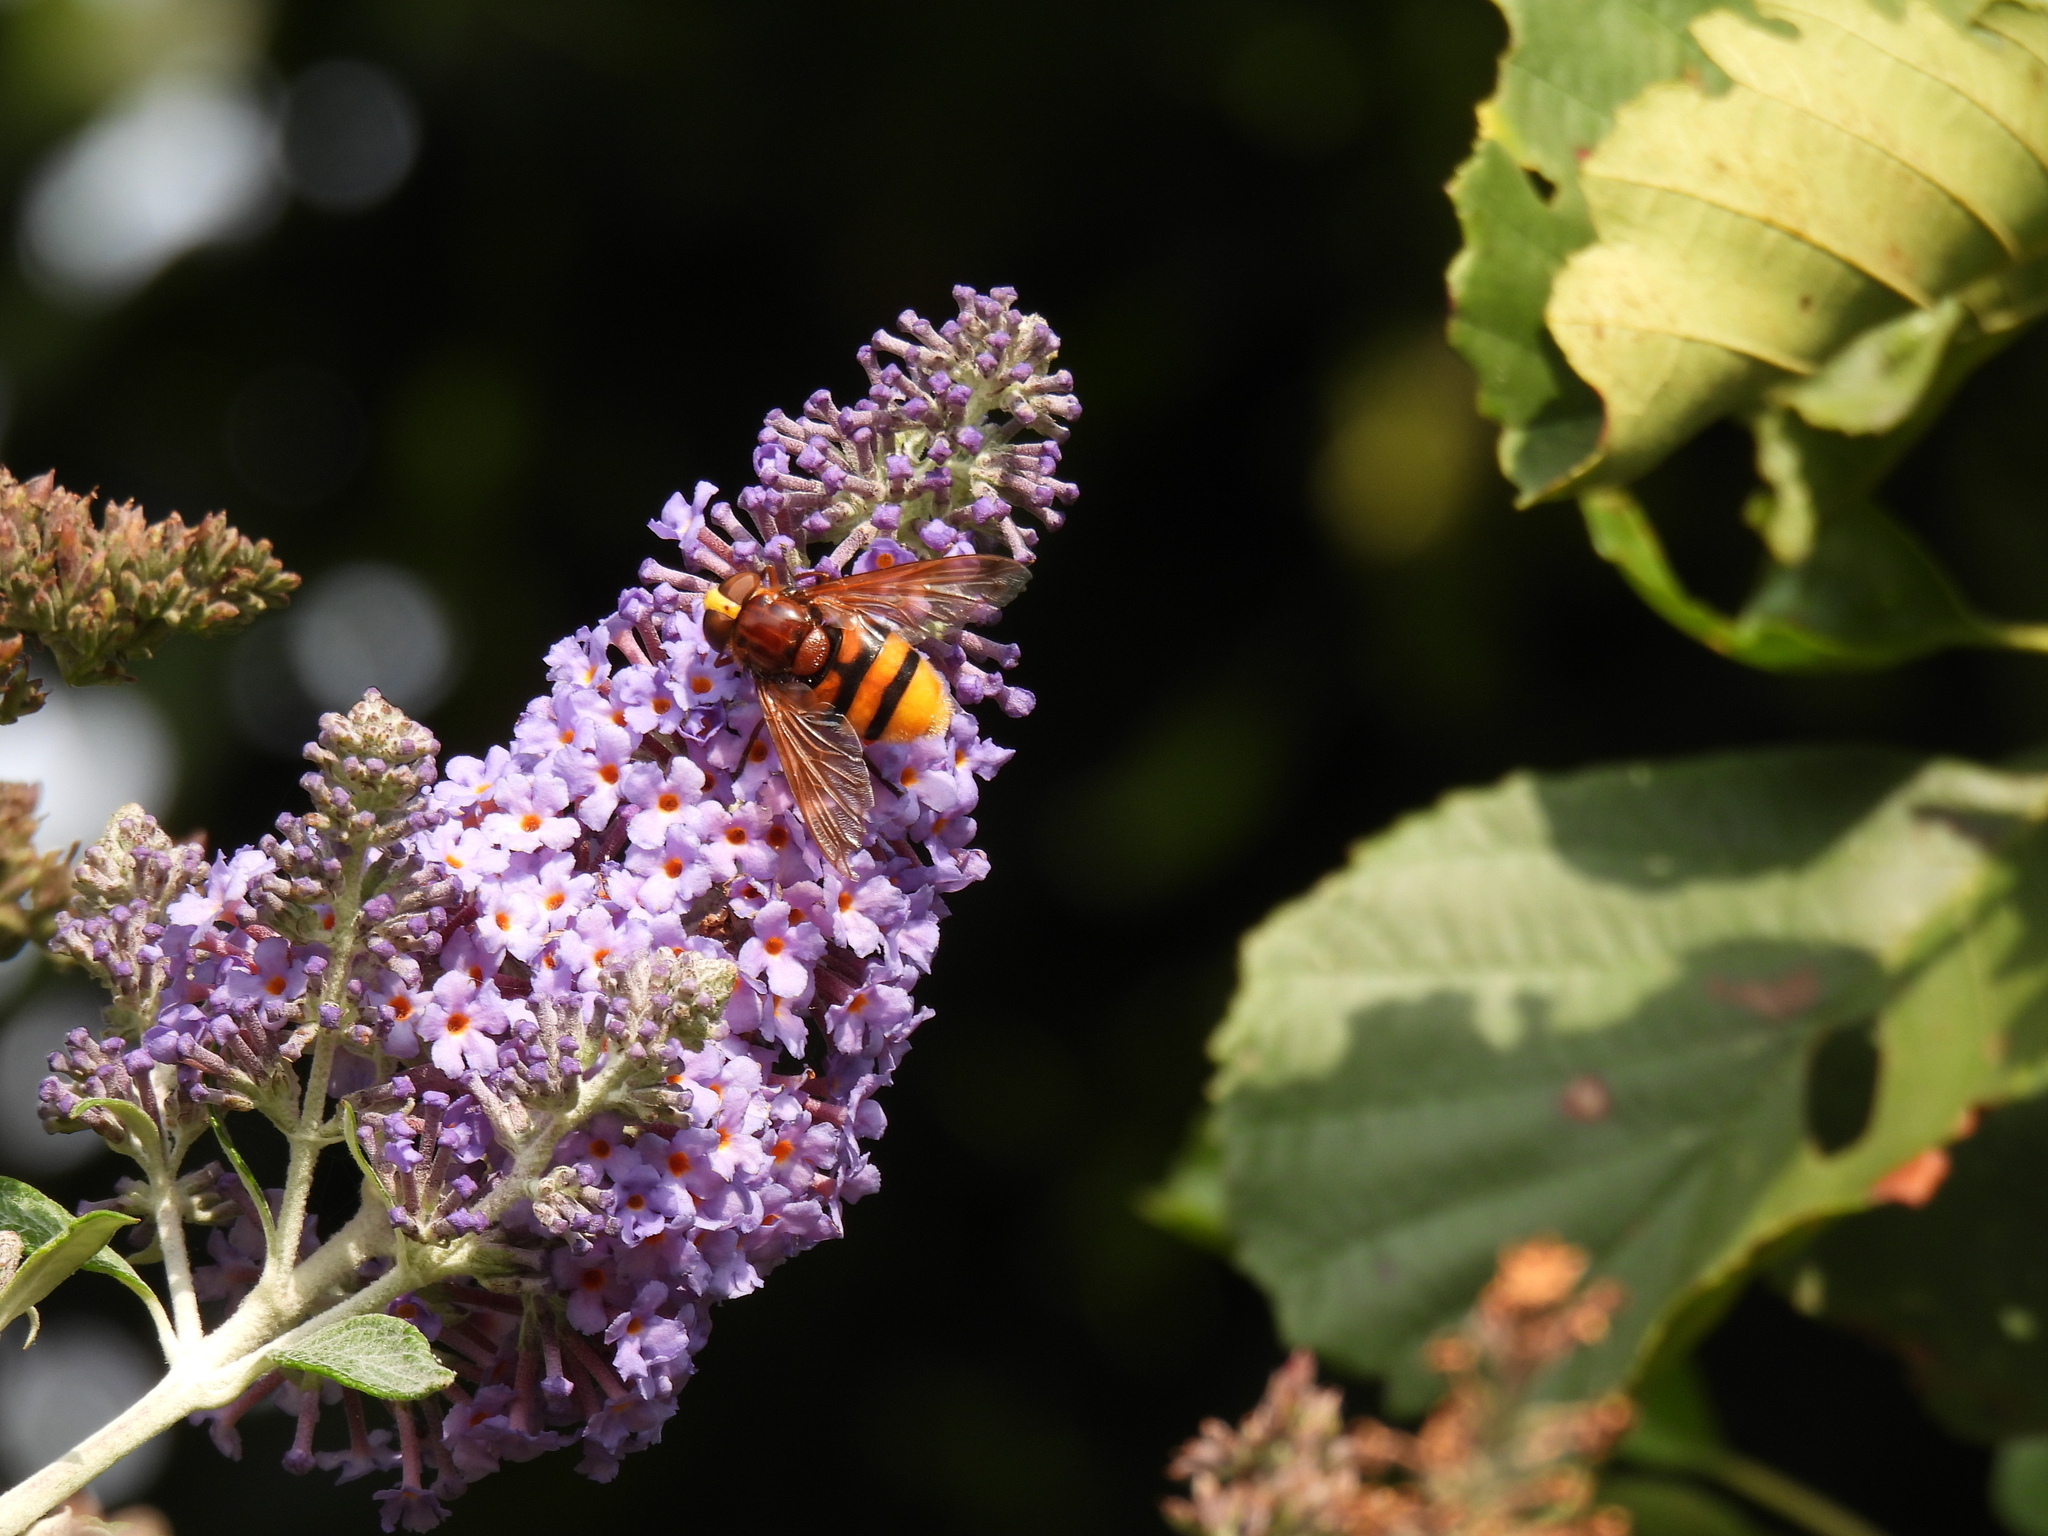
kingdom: Animalia
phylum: Arthropoda
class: Insecta
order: Diptera
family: Syrphidae
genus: Volucella
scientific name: Volucella zonaria
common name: Hornet hoverfly
